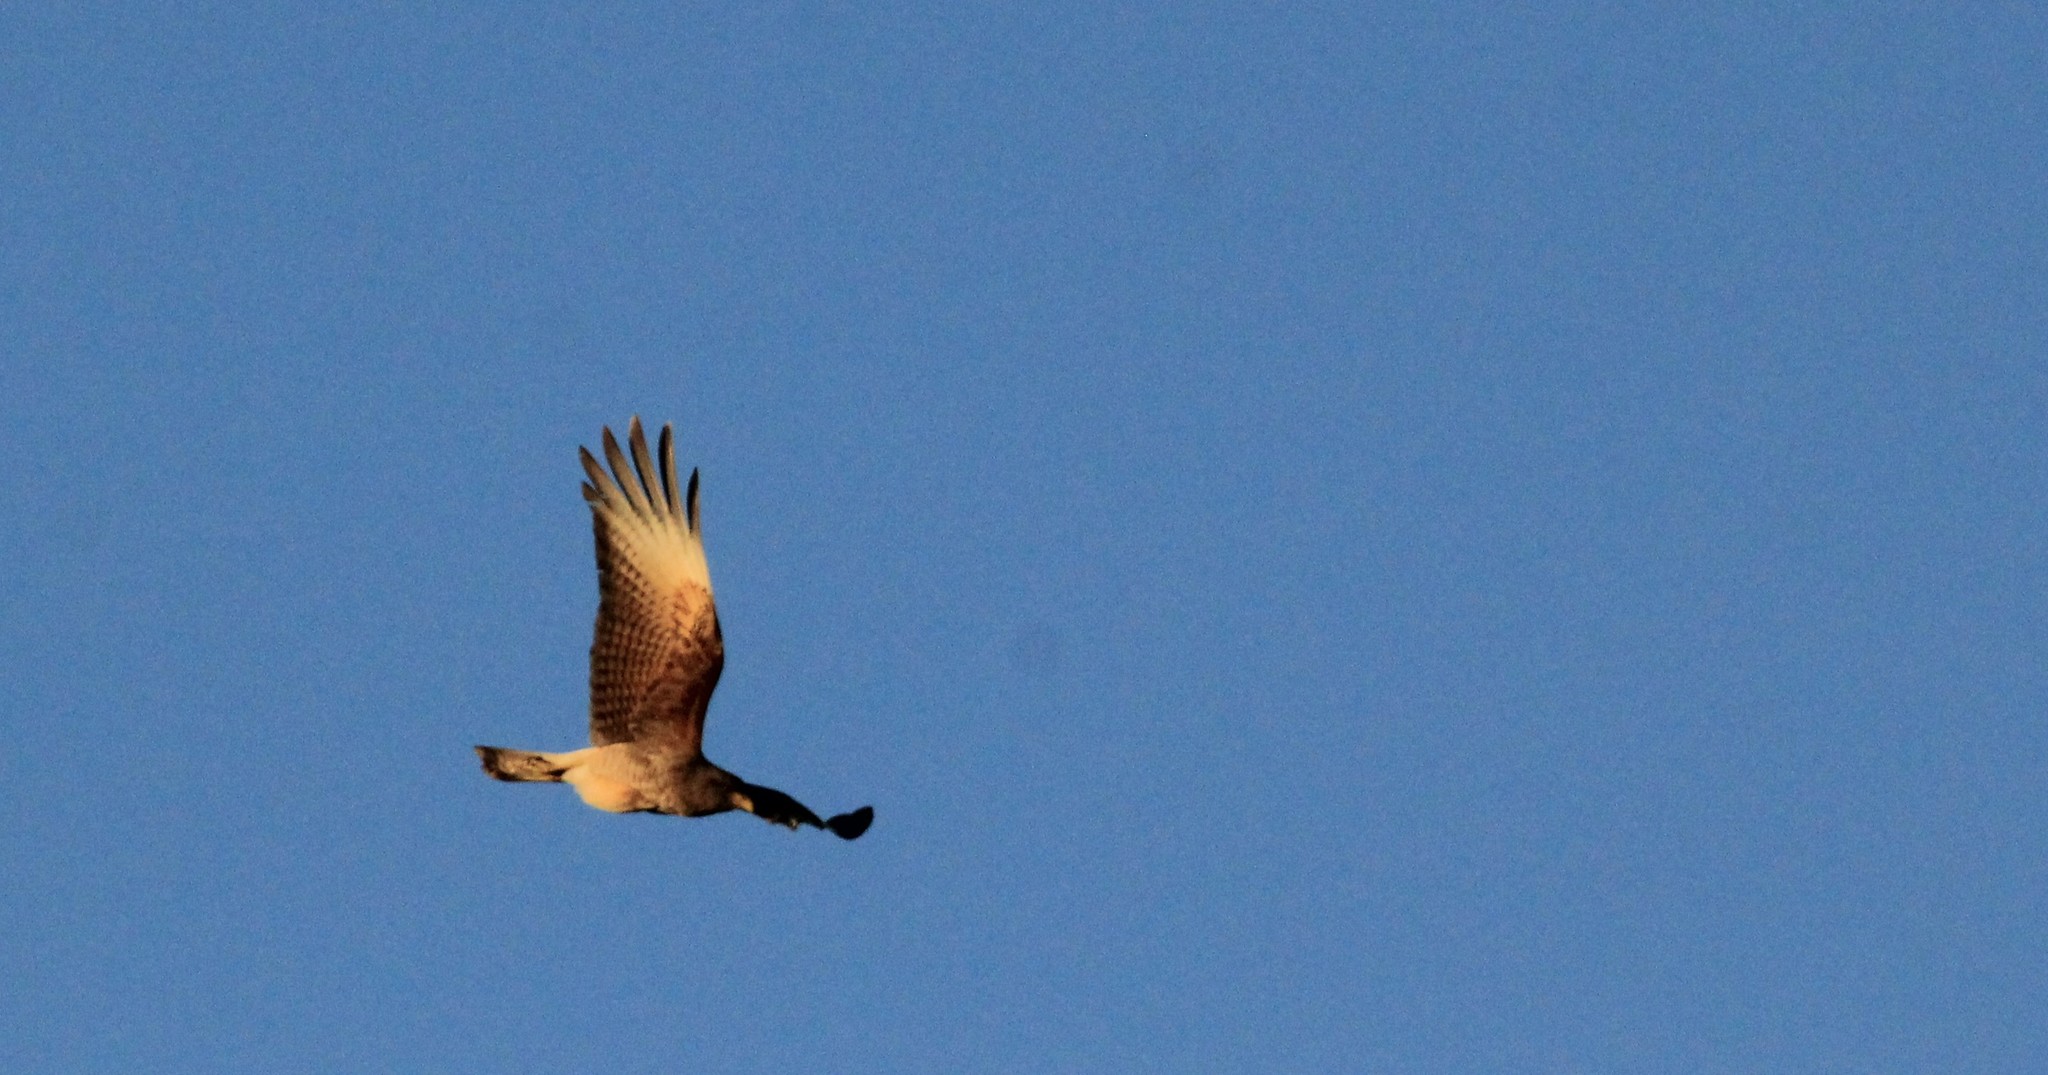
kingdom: Animalia
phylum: Chordata
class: Aves
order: Falconiformes
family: Falconidae
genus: Daptrius
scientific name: Daptrius
